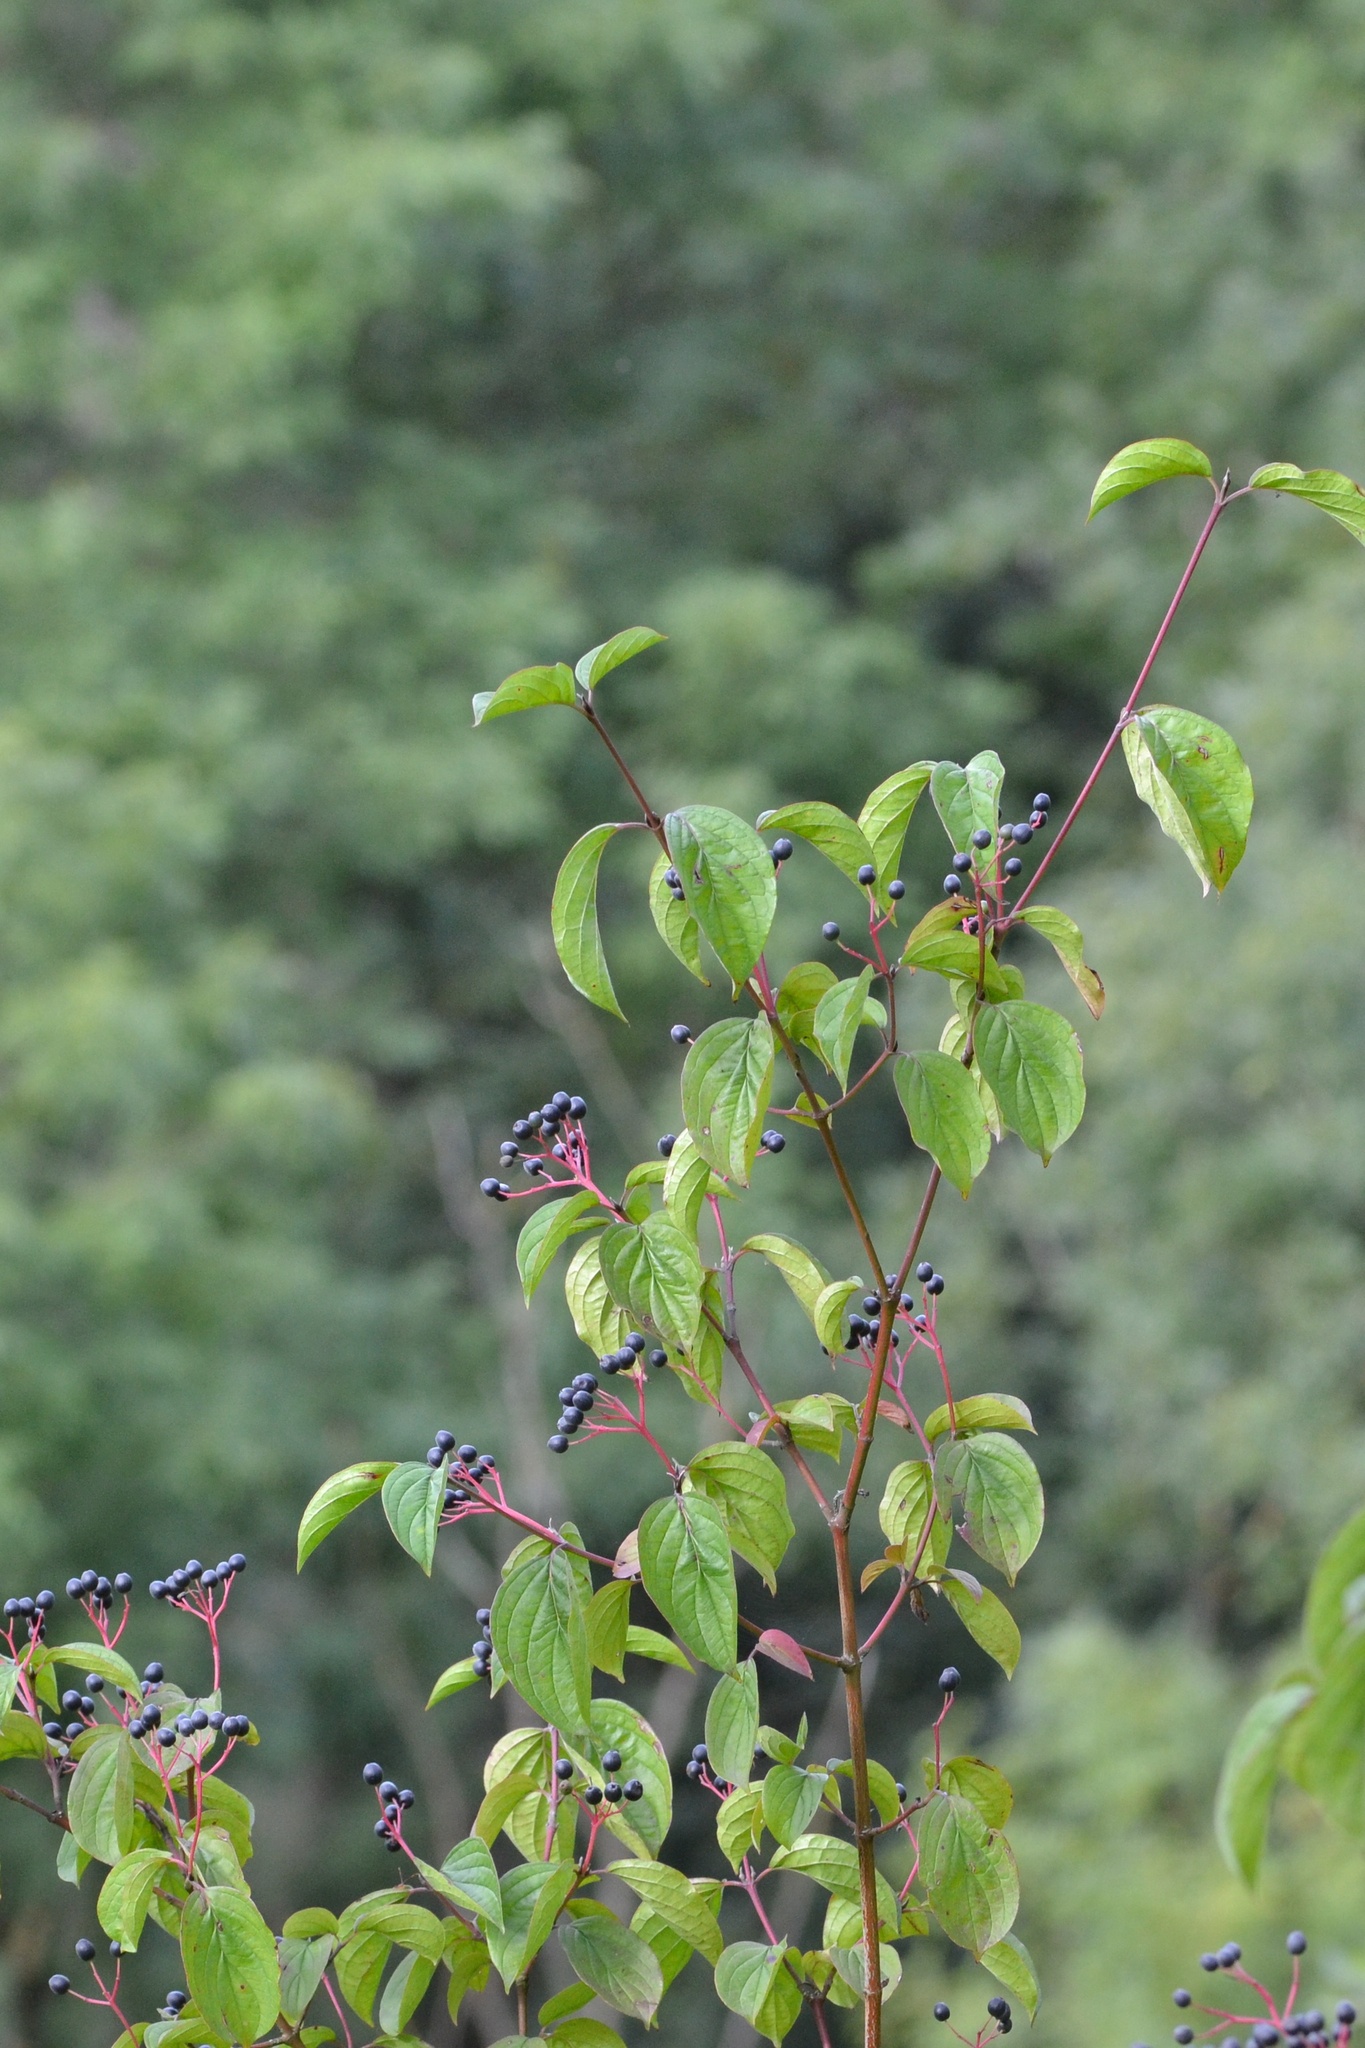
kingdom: Plantae
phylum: Tracheophyta
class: Magnoliopsida
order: Cornales
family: Cornaceae
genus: Cornus
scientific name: Cornus sanguinea
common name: Dogwood
